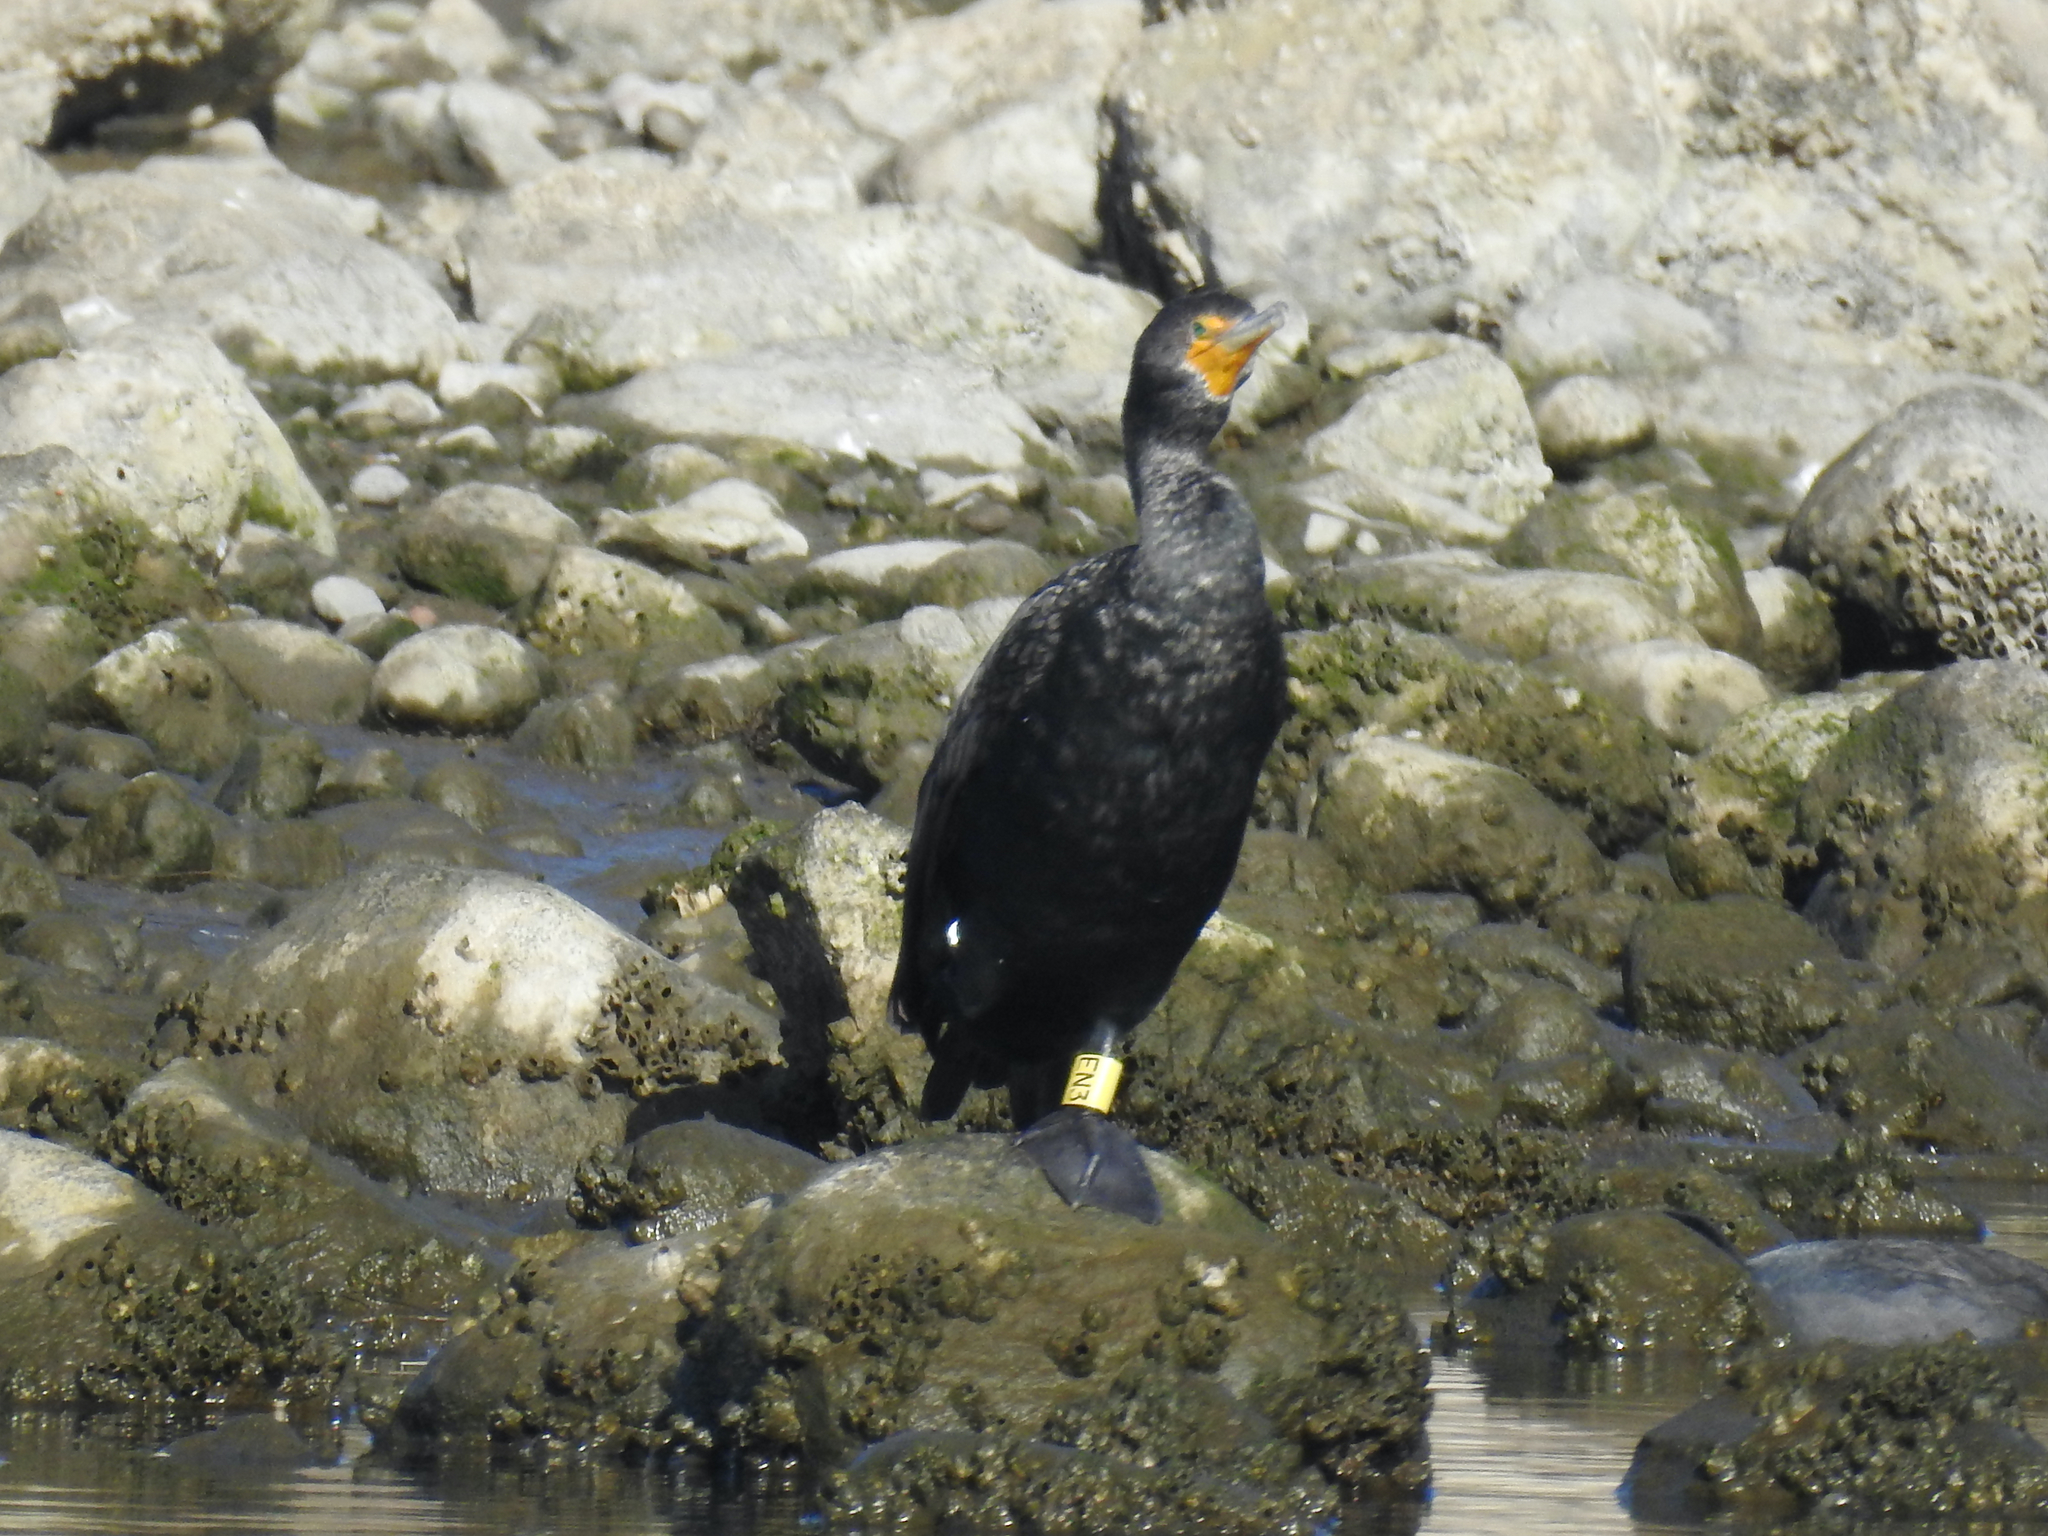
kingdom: Animalia
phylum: Chordata
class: Aves
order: Suliformes
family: Phalacrocoracidae
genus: Phalacrocorax
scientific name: Phalacrocorax auritus
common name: Double-crested cormorant
